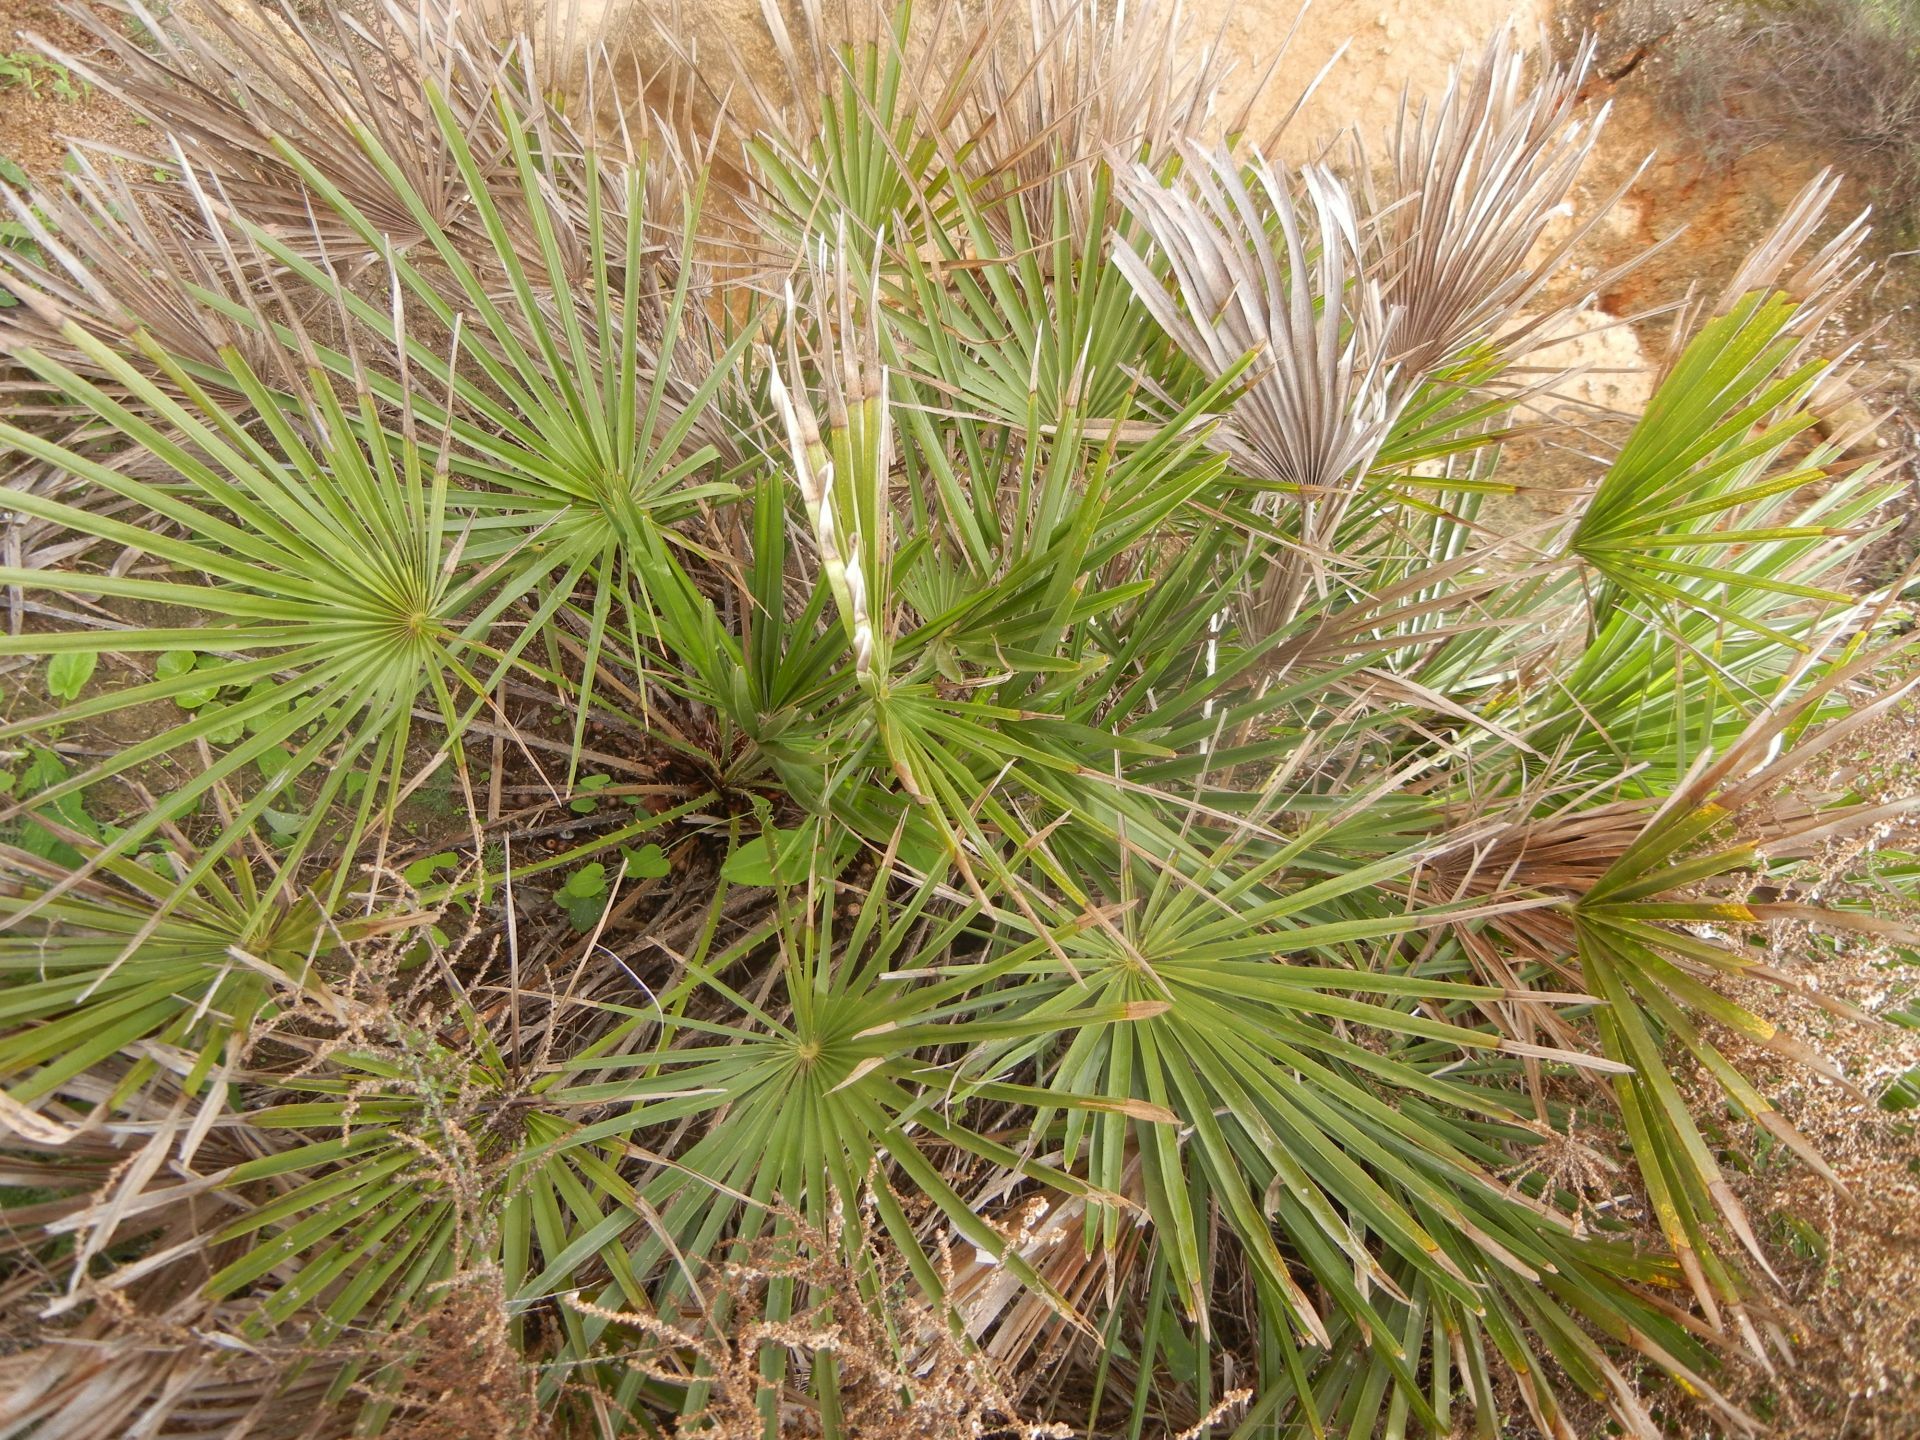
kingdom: Plantae
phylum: Tracheophyta
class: Liliopsida
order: Arecales
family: Arecaceae
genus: Chamaerops
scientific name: Chamaerops humilis
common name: Dwarf fan palm
